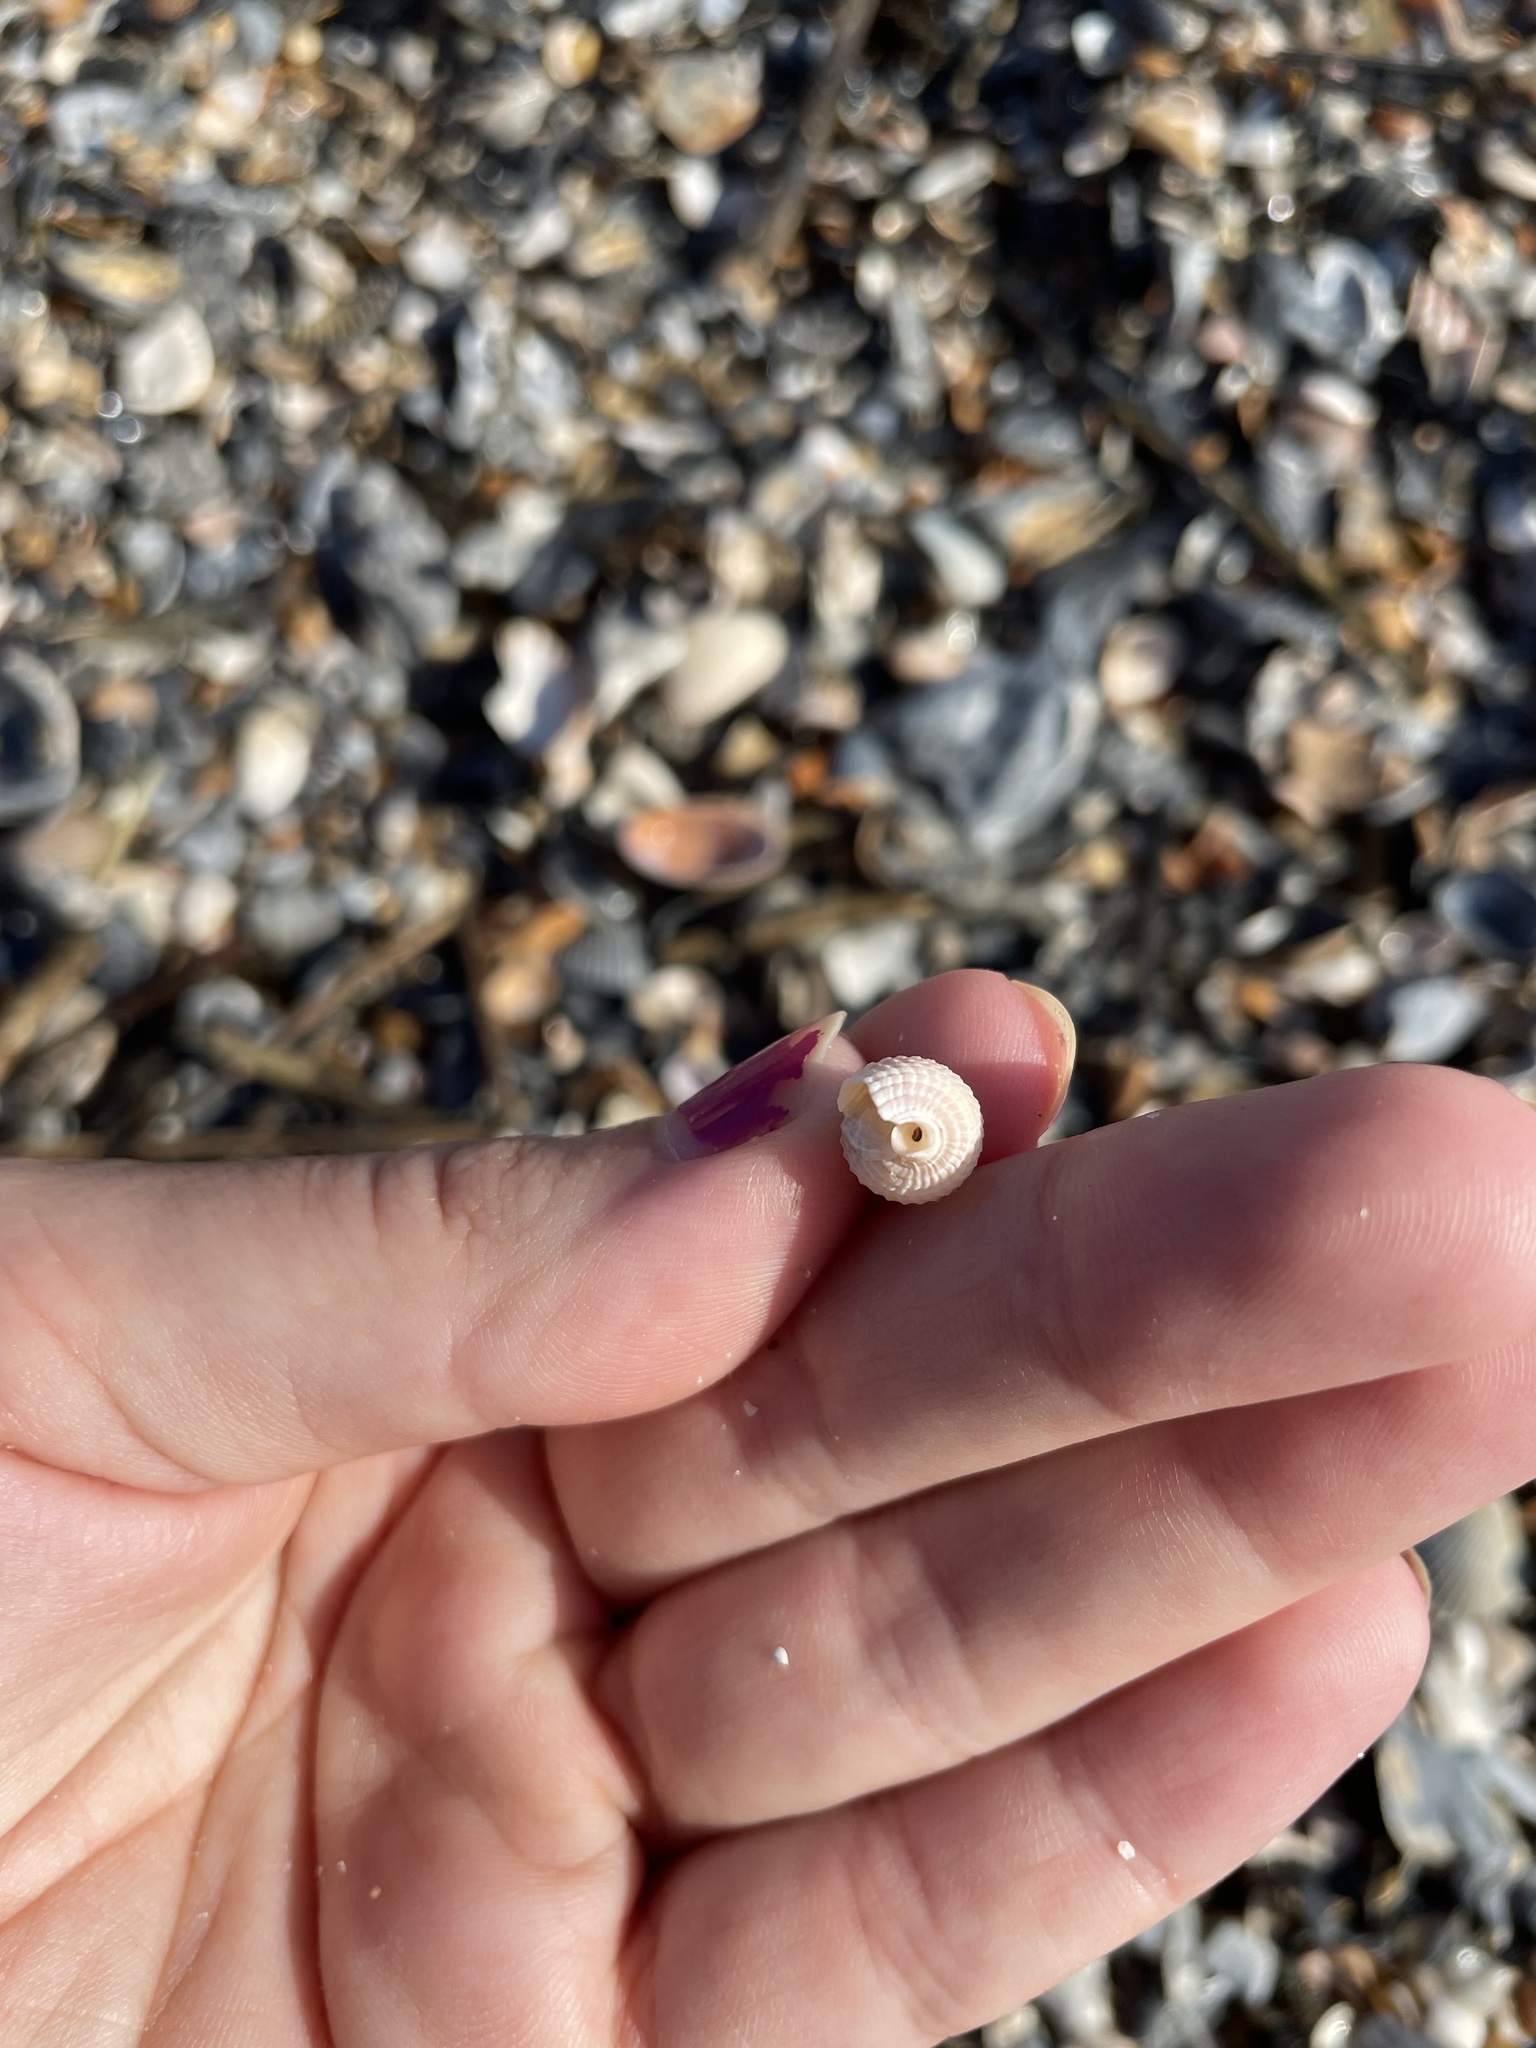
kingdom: Animalia
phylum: Mollusca
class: Gastropoda
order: Neogastropoda
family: Nassariidae
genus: Ilyanassa
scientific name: Ilyanassa trivittata
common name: Three-line mudsnail
